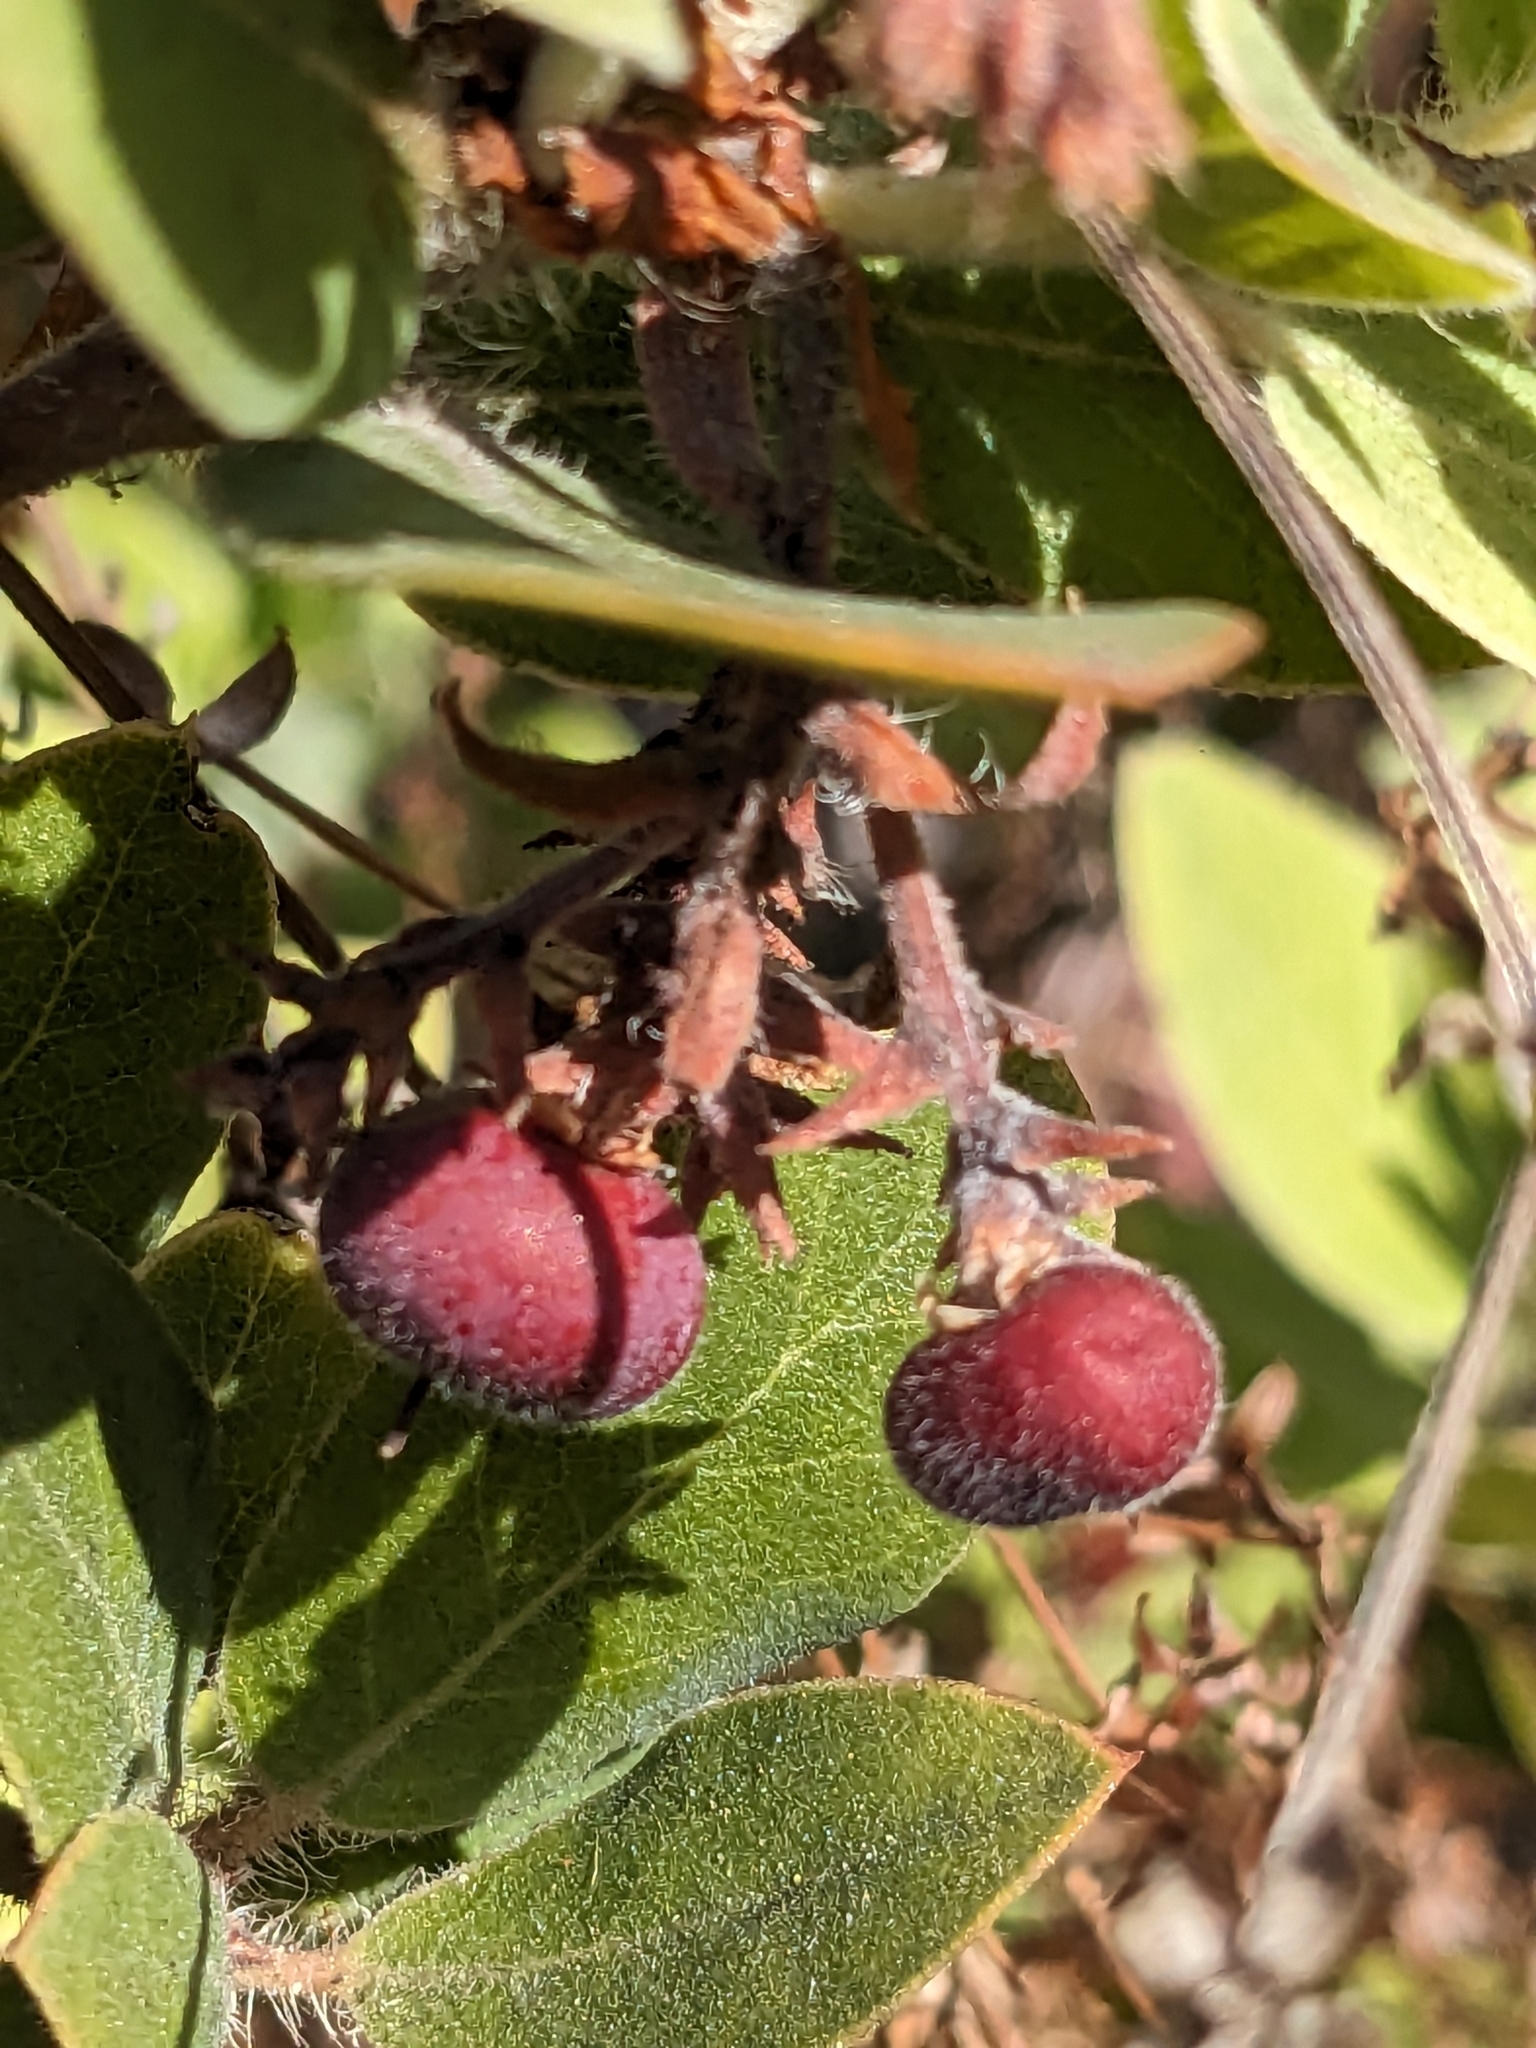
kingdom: Plantae
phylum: Tracheophyta
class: Magnoliopsida
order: Ericales
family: Ericaceae
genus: Arctostaphylos
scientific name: Arctostaphylos crustacea
